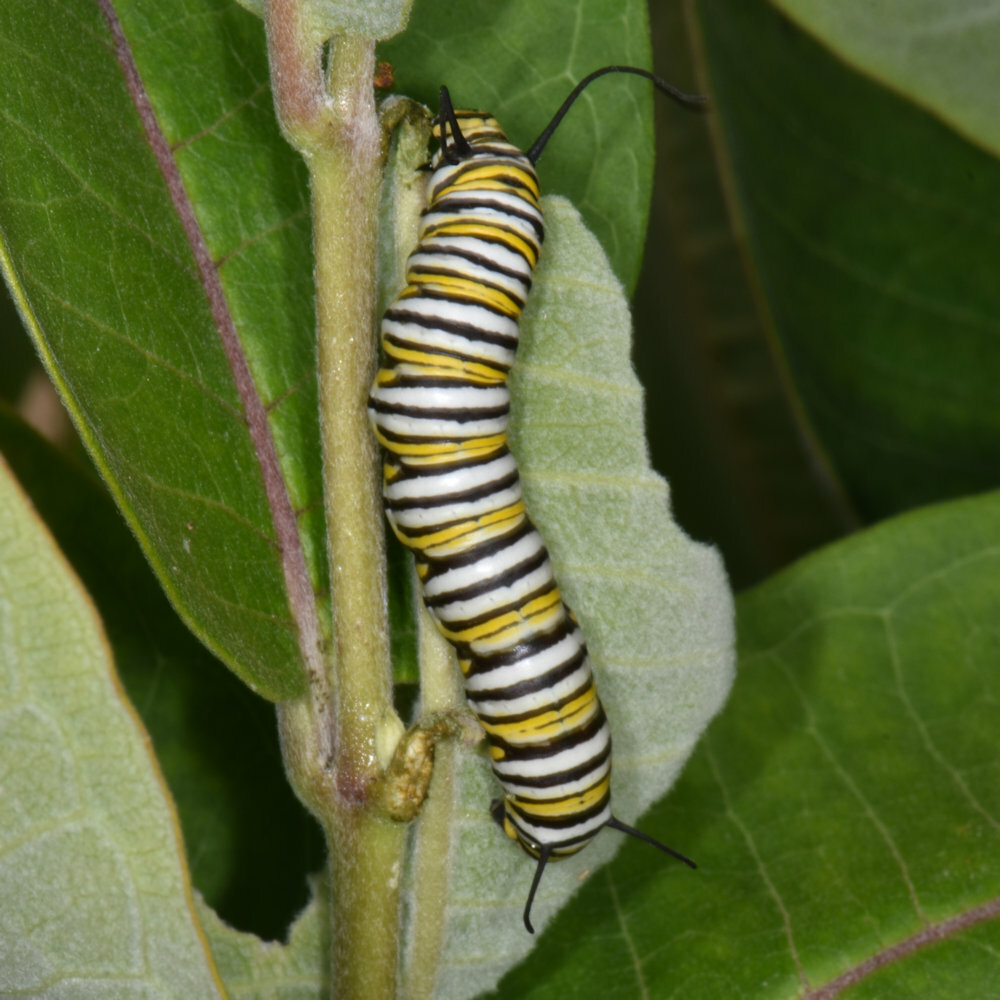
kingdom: Animalia
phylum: Arthropoda
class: Insecta
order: Lepidoptera
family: Nymphalidae
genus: Danaus
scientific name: Danaus plexippus
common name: Monarch
